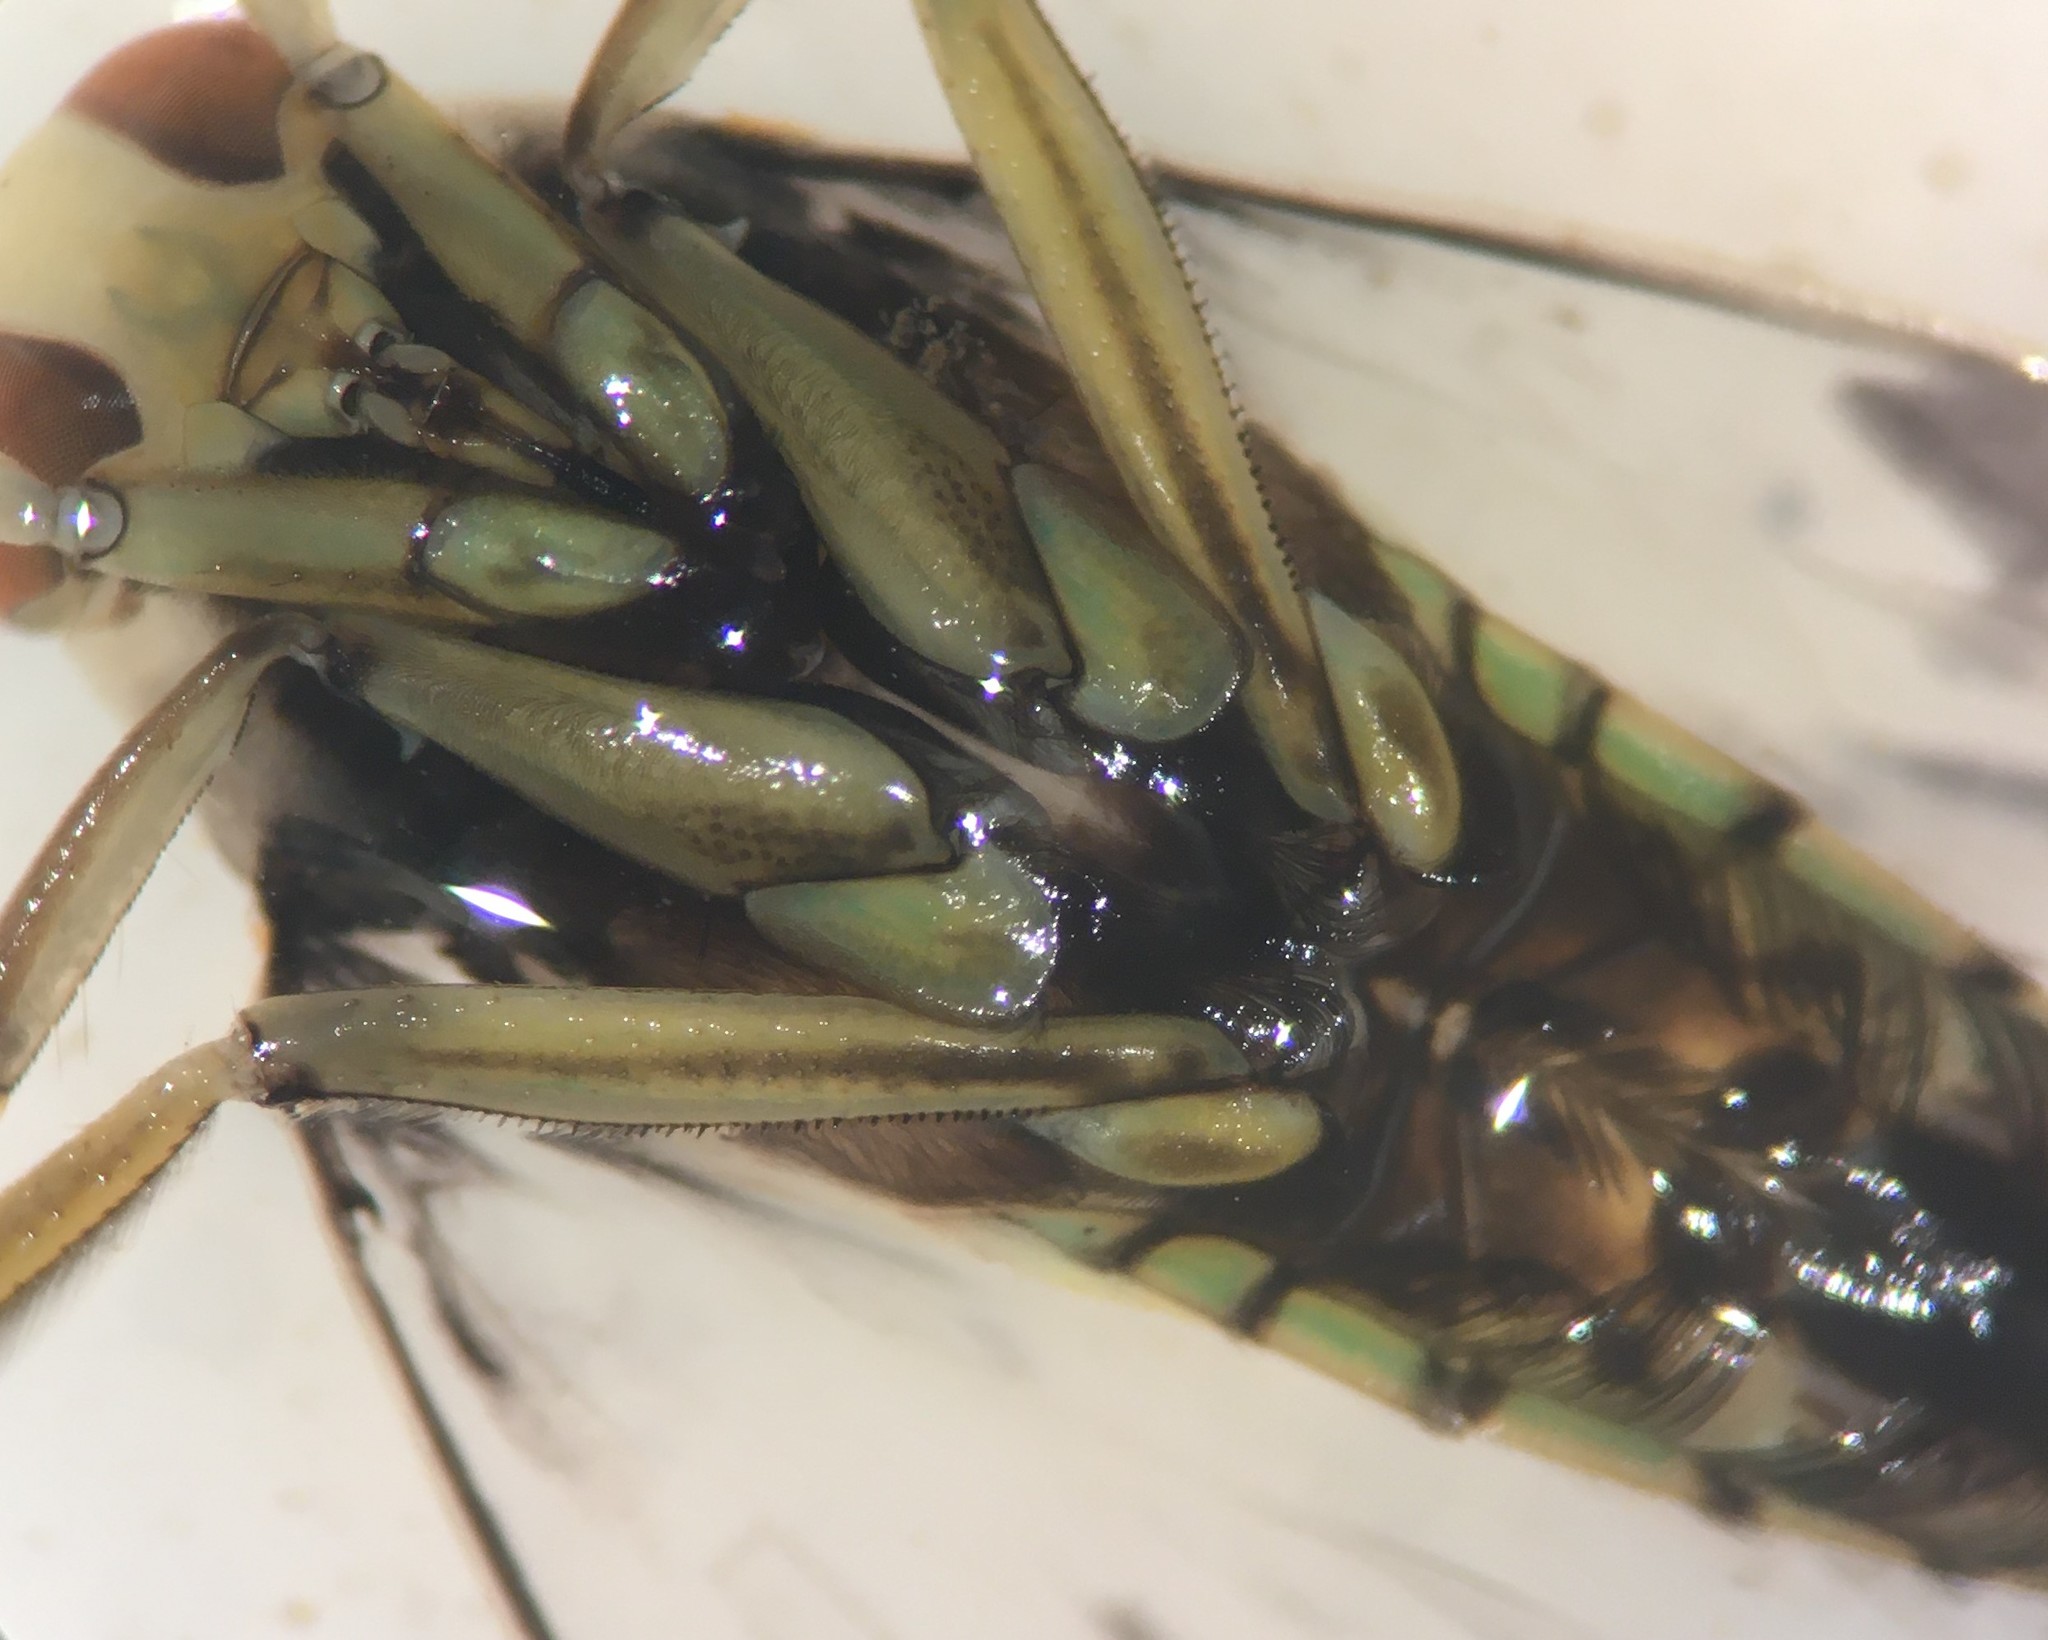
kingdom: Animalia
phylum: Arthropoda
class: Insecta
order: Hemiptera
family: Notonectidae
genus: Notonecta
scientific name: Notonecta undulata
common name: Grousewinged backswimmer
